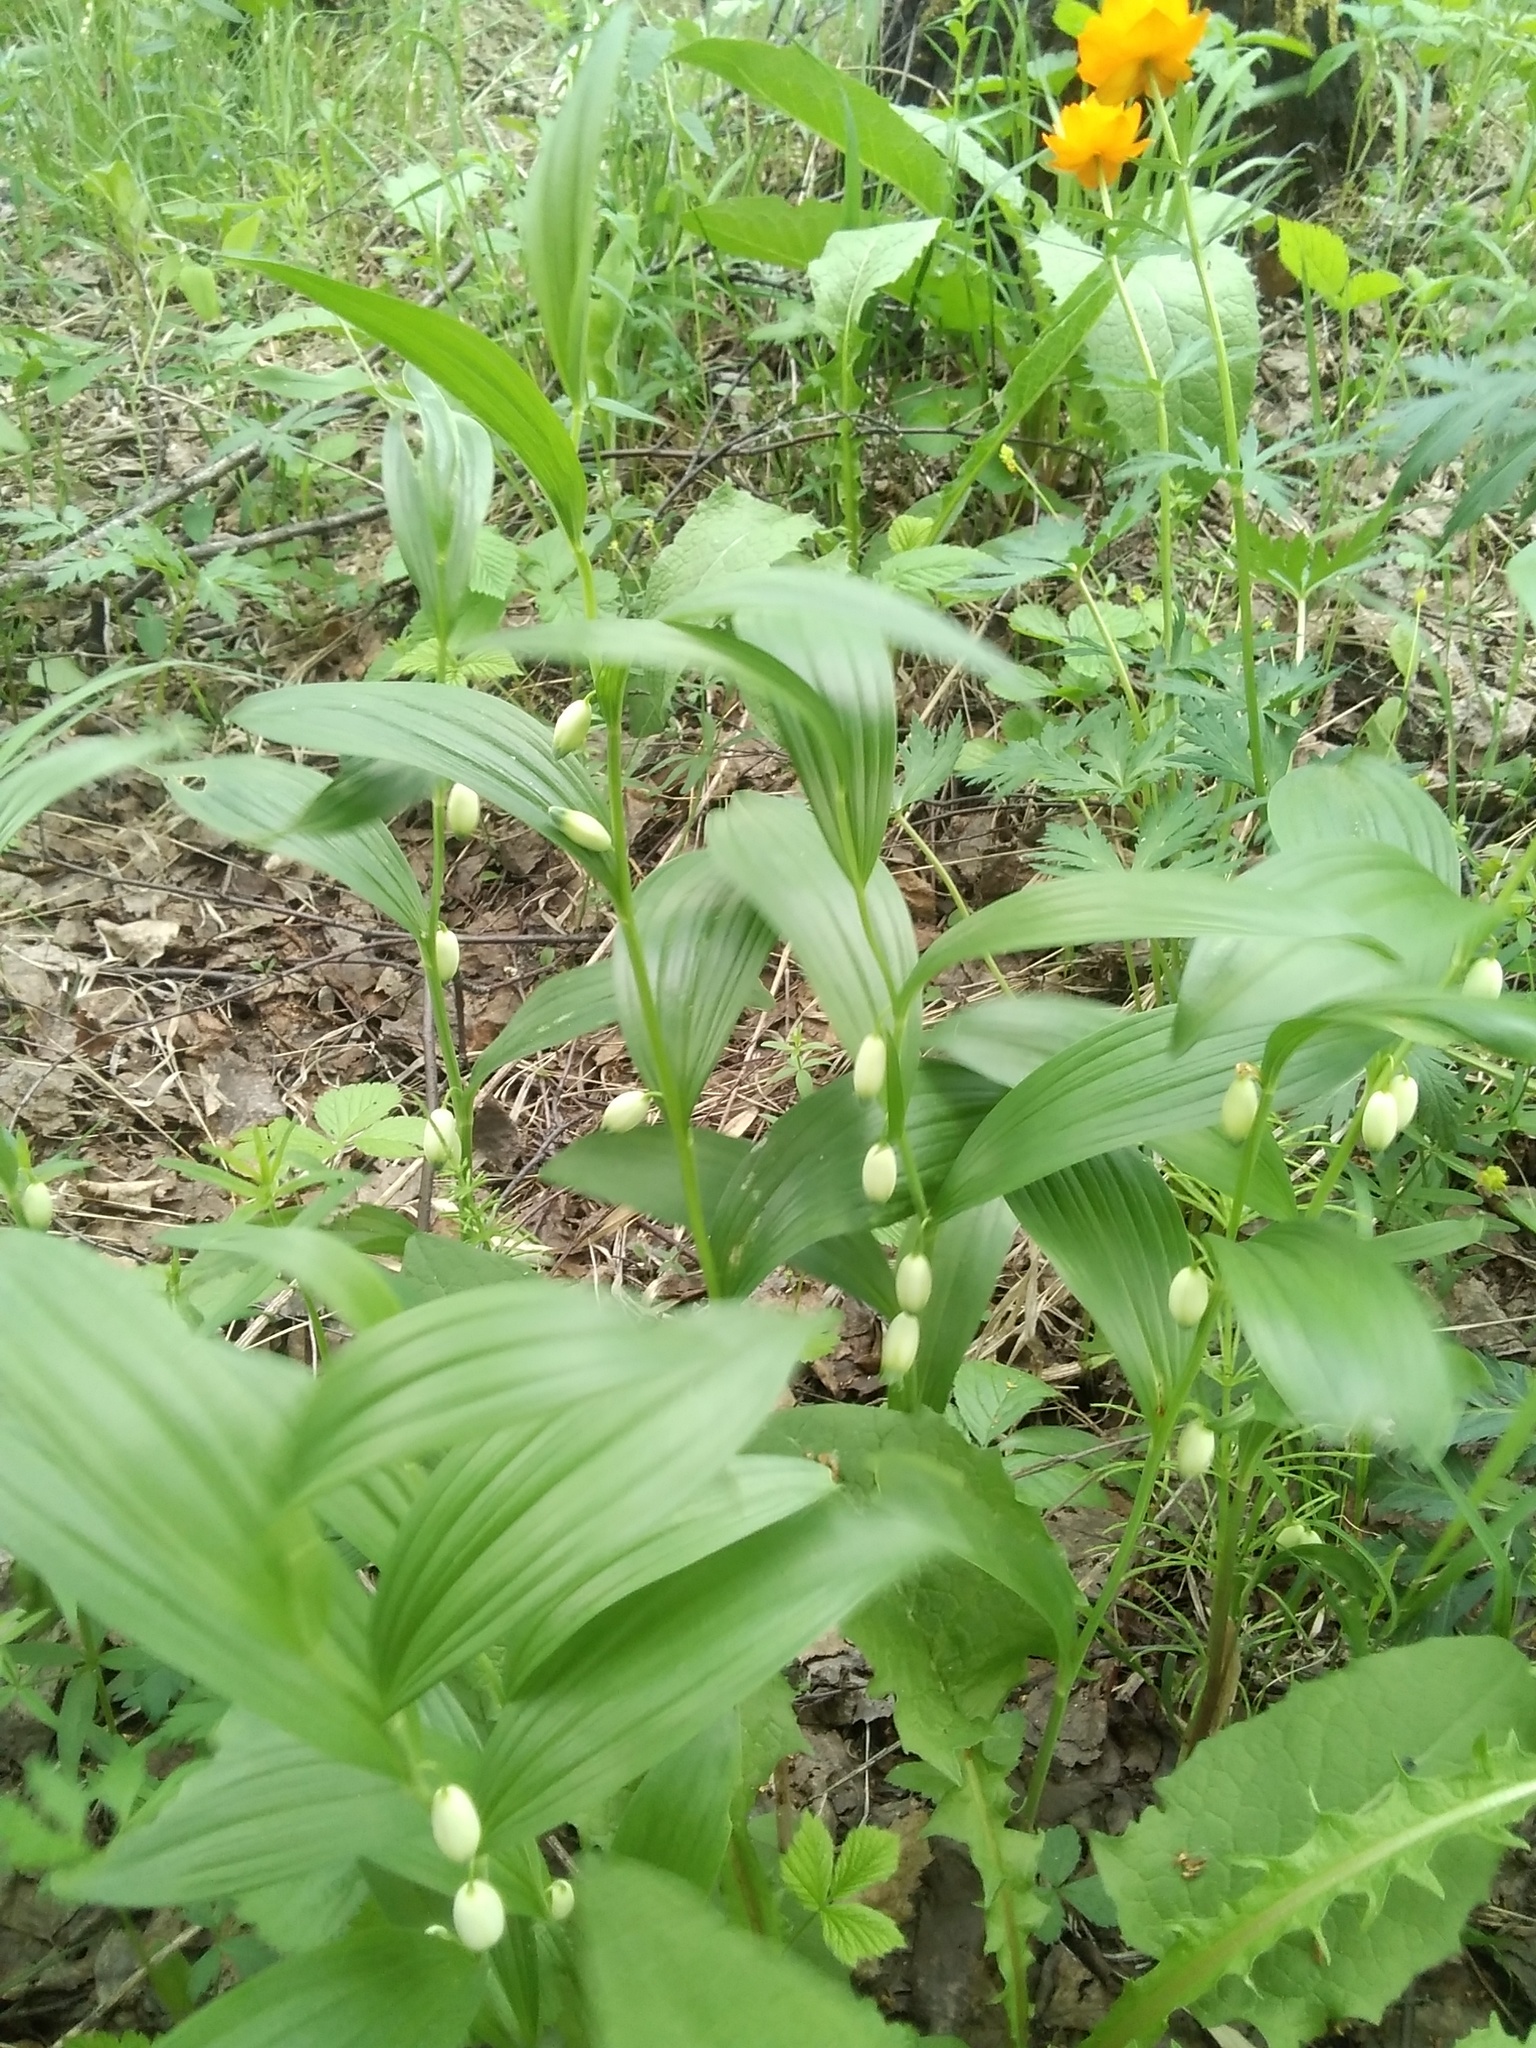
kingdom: Plantae
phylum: Tracheophyta
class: Liliopsida
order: Asparagales
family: Asparagaceae
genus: Polygonatum
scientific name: Polygonatum humile
